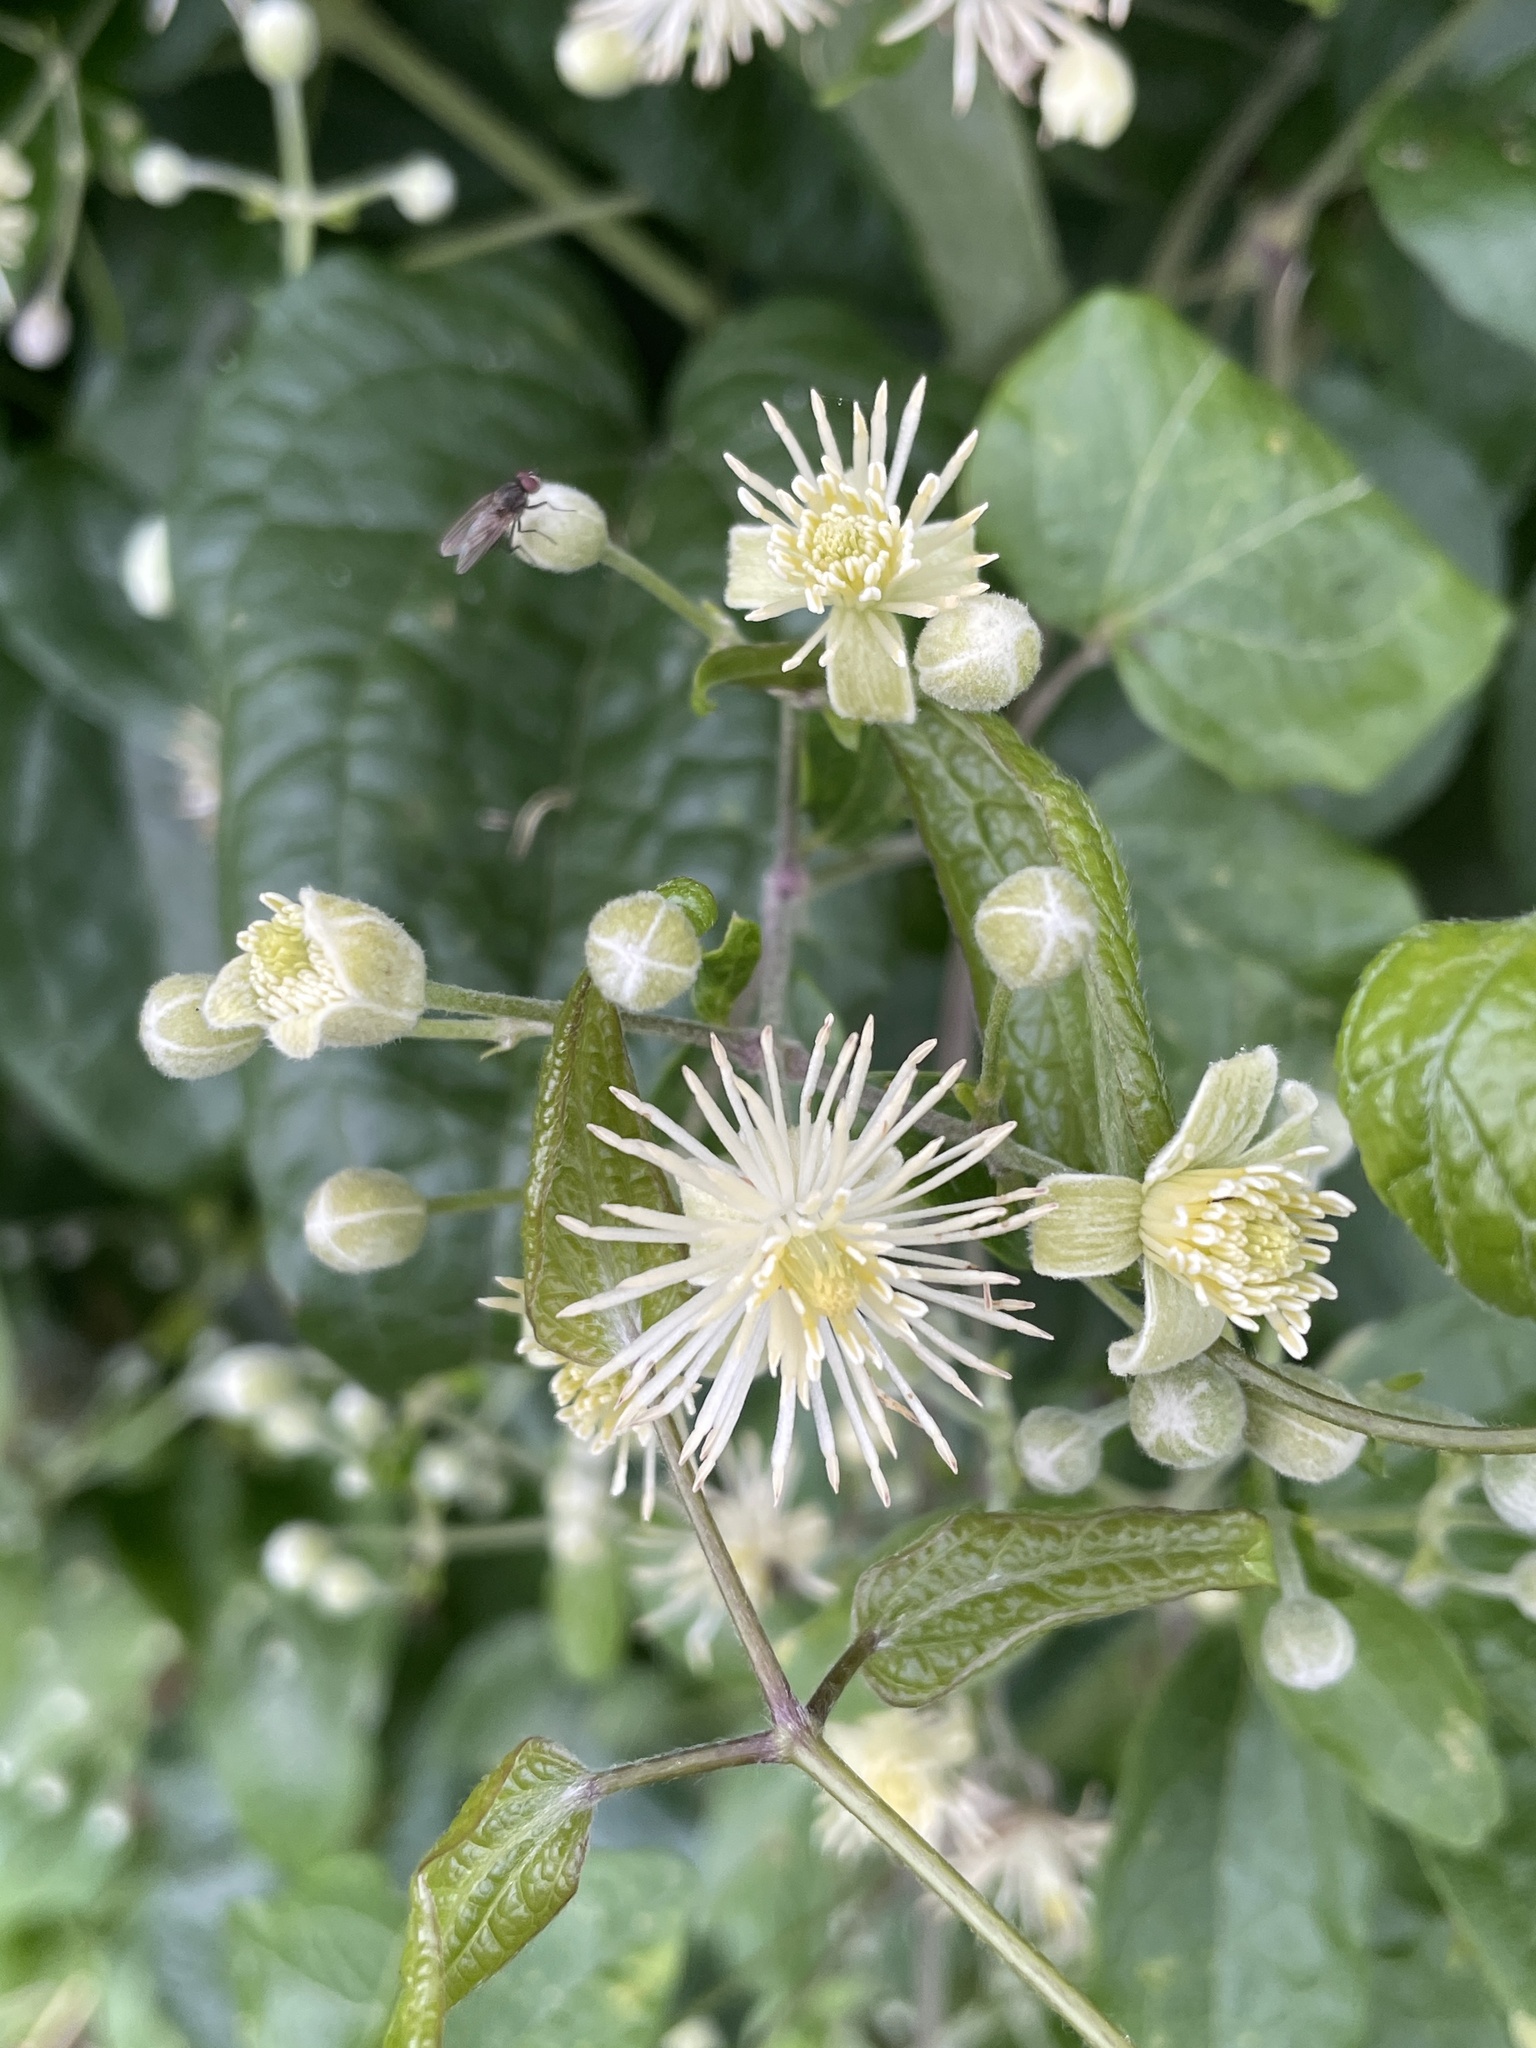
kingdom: Plantae
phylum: Tracheophyta
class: Magnoliopsida
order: Ranunculales
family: Ranunculaceae
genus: Clematis
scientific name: Clematis vitalba
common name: Evergreen clematis
